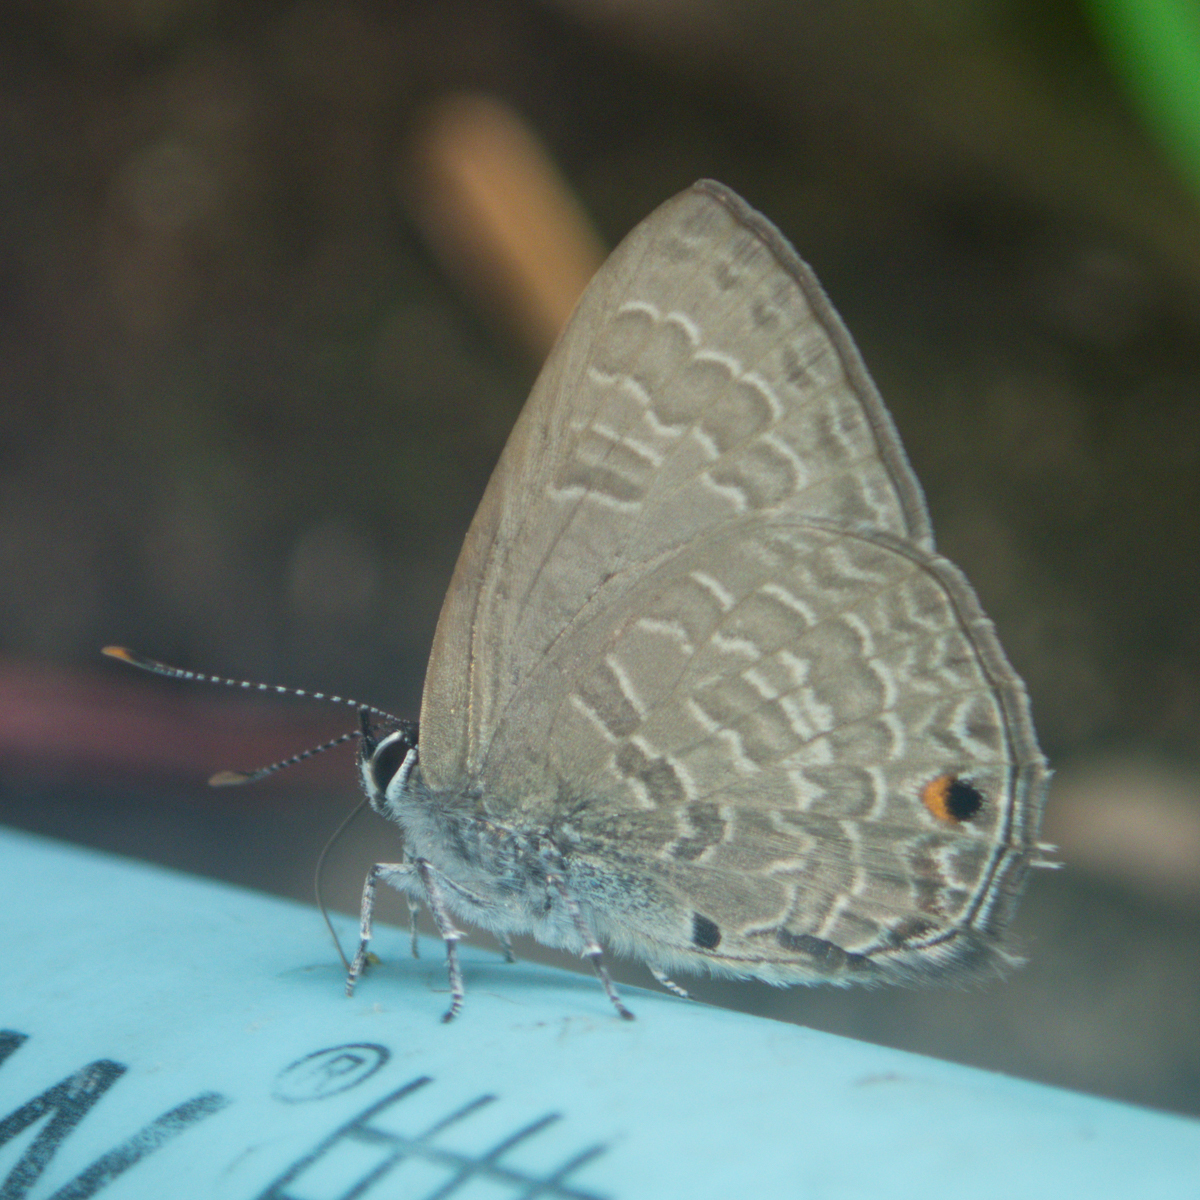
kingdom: Animalia
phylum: Arthropoda
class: Insecta
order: Lepidoptera
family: Lycaenidae
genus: Anthene
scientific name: Anthene emolus
